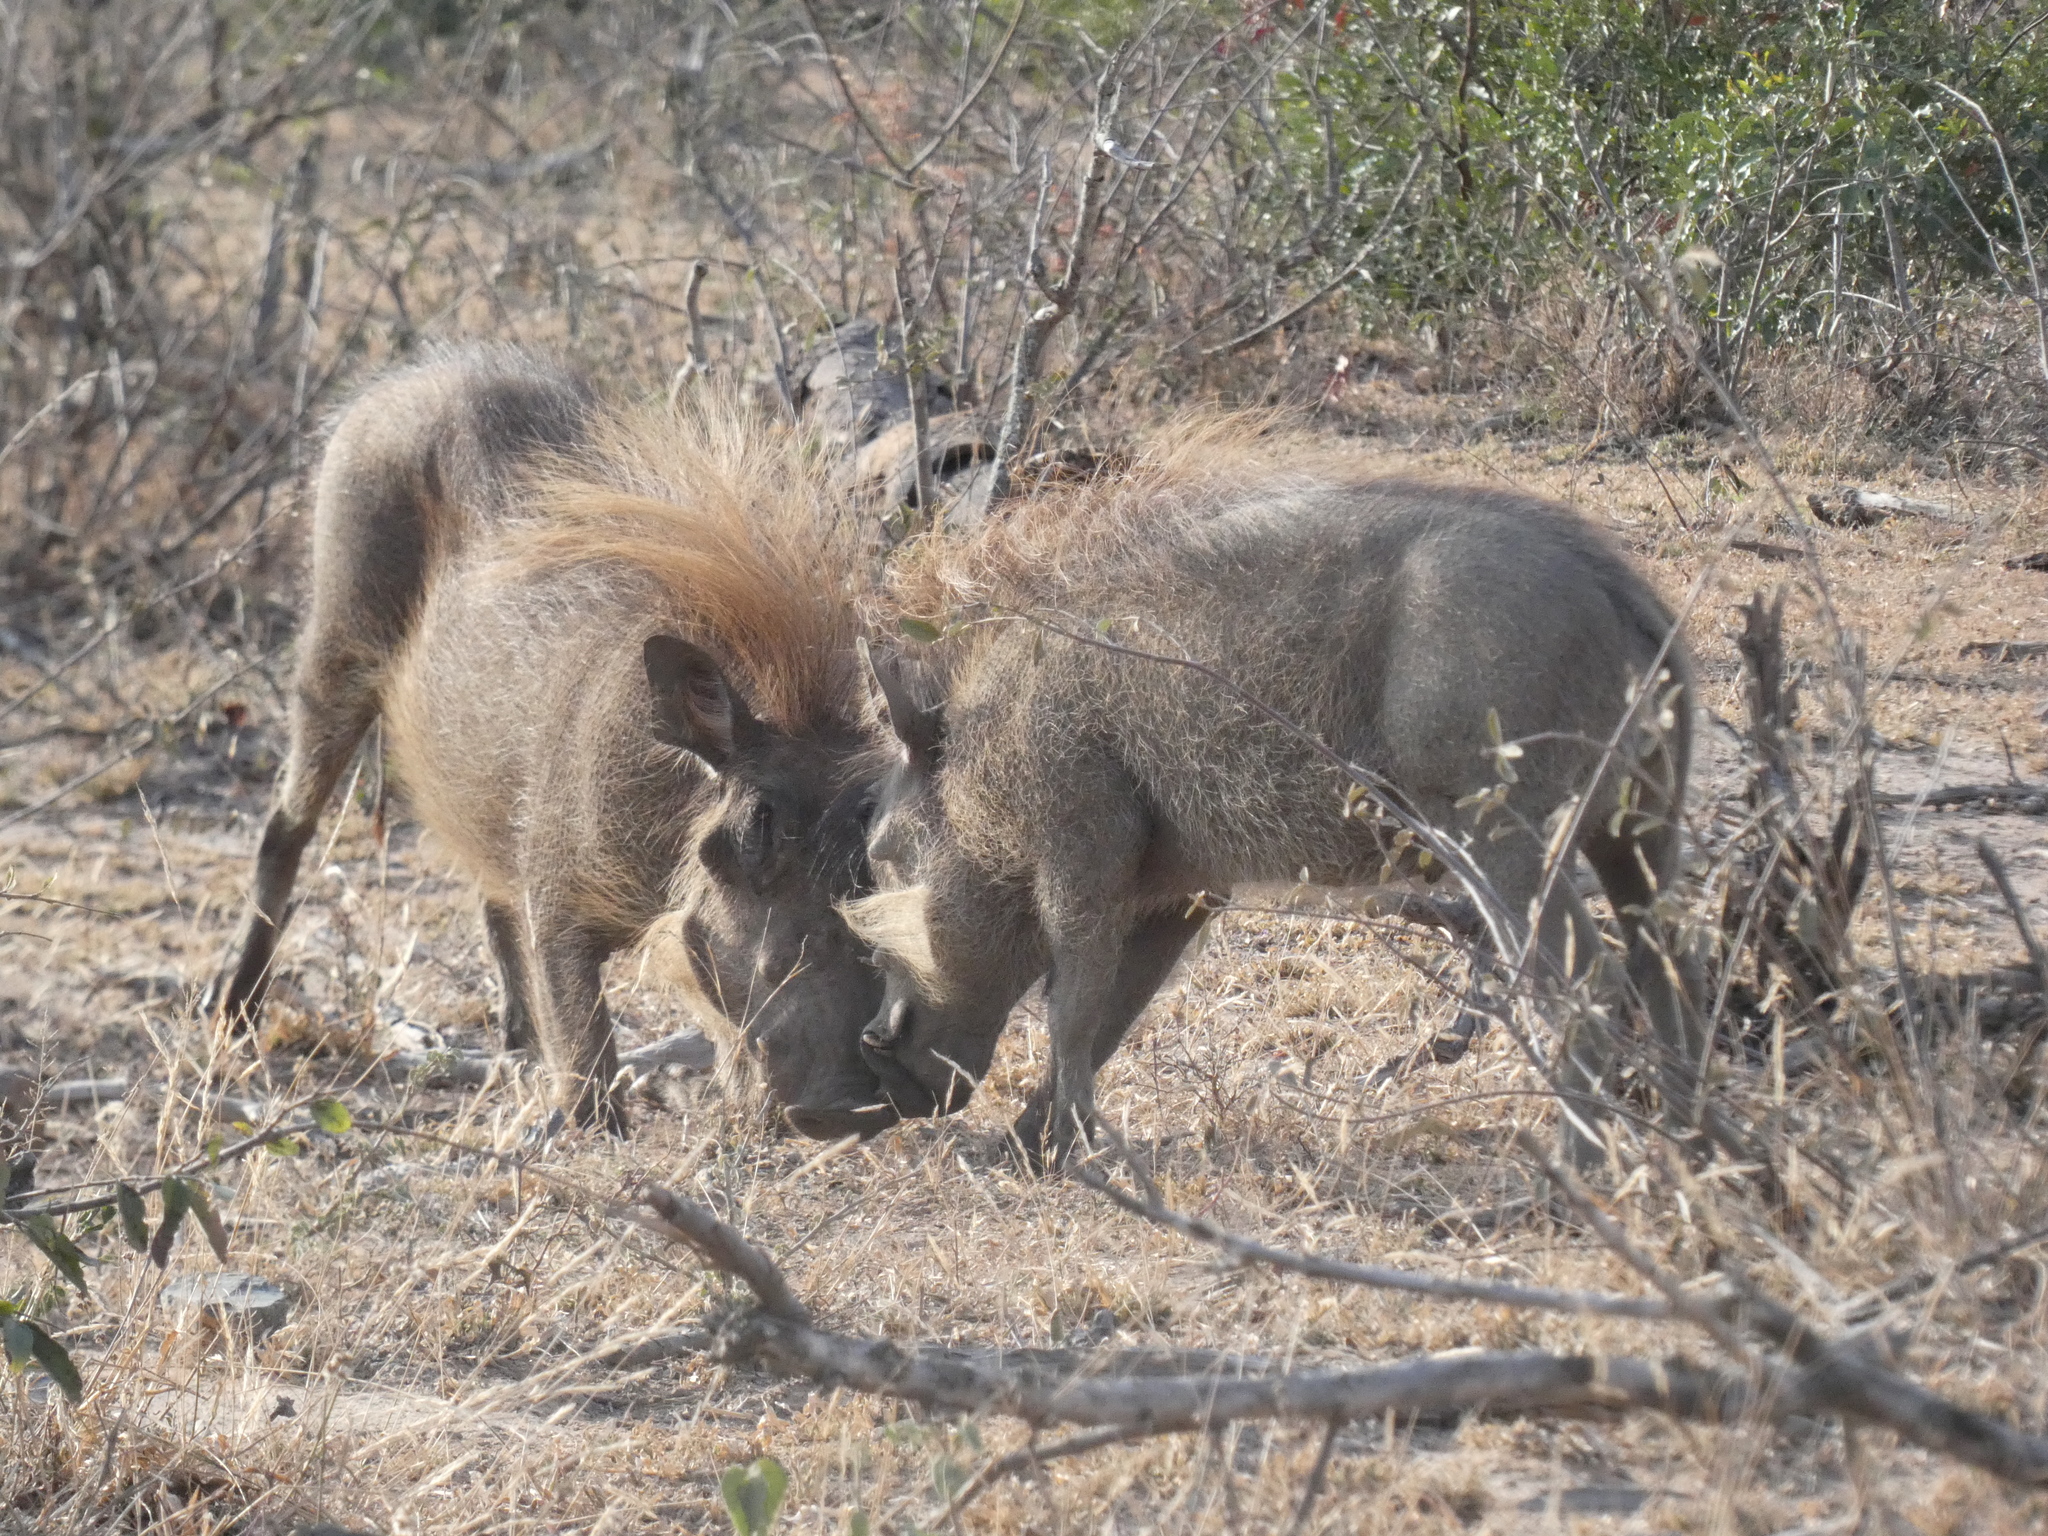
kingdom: Animalia
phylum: Chordata
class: Mammalia
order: Artiodactyla
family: Suidae
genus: Phacochoerus
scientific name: Phacochoerus africanus
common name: Common warthog
